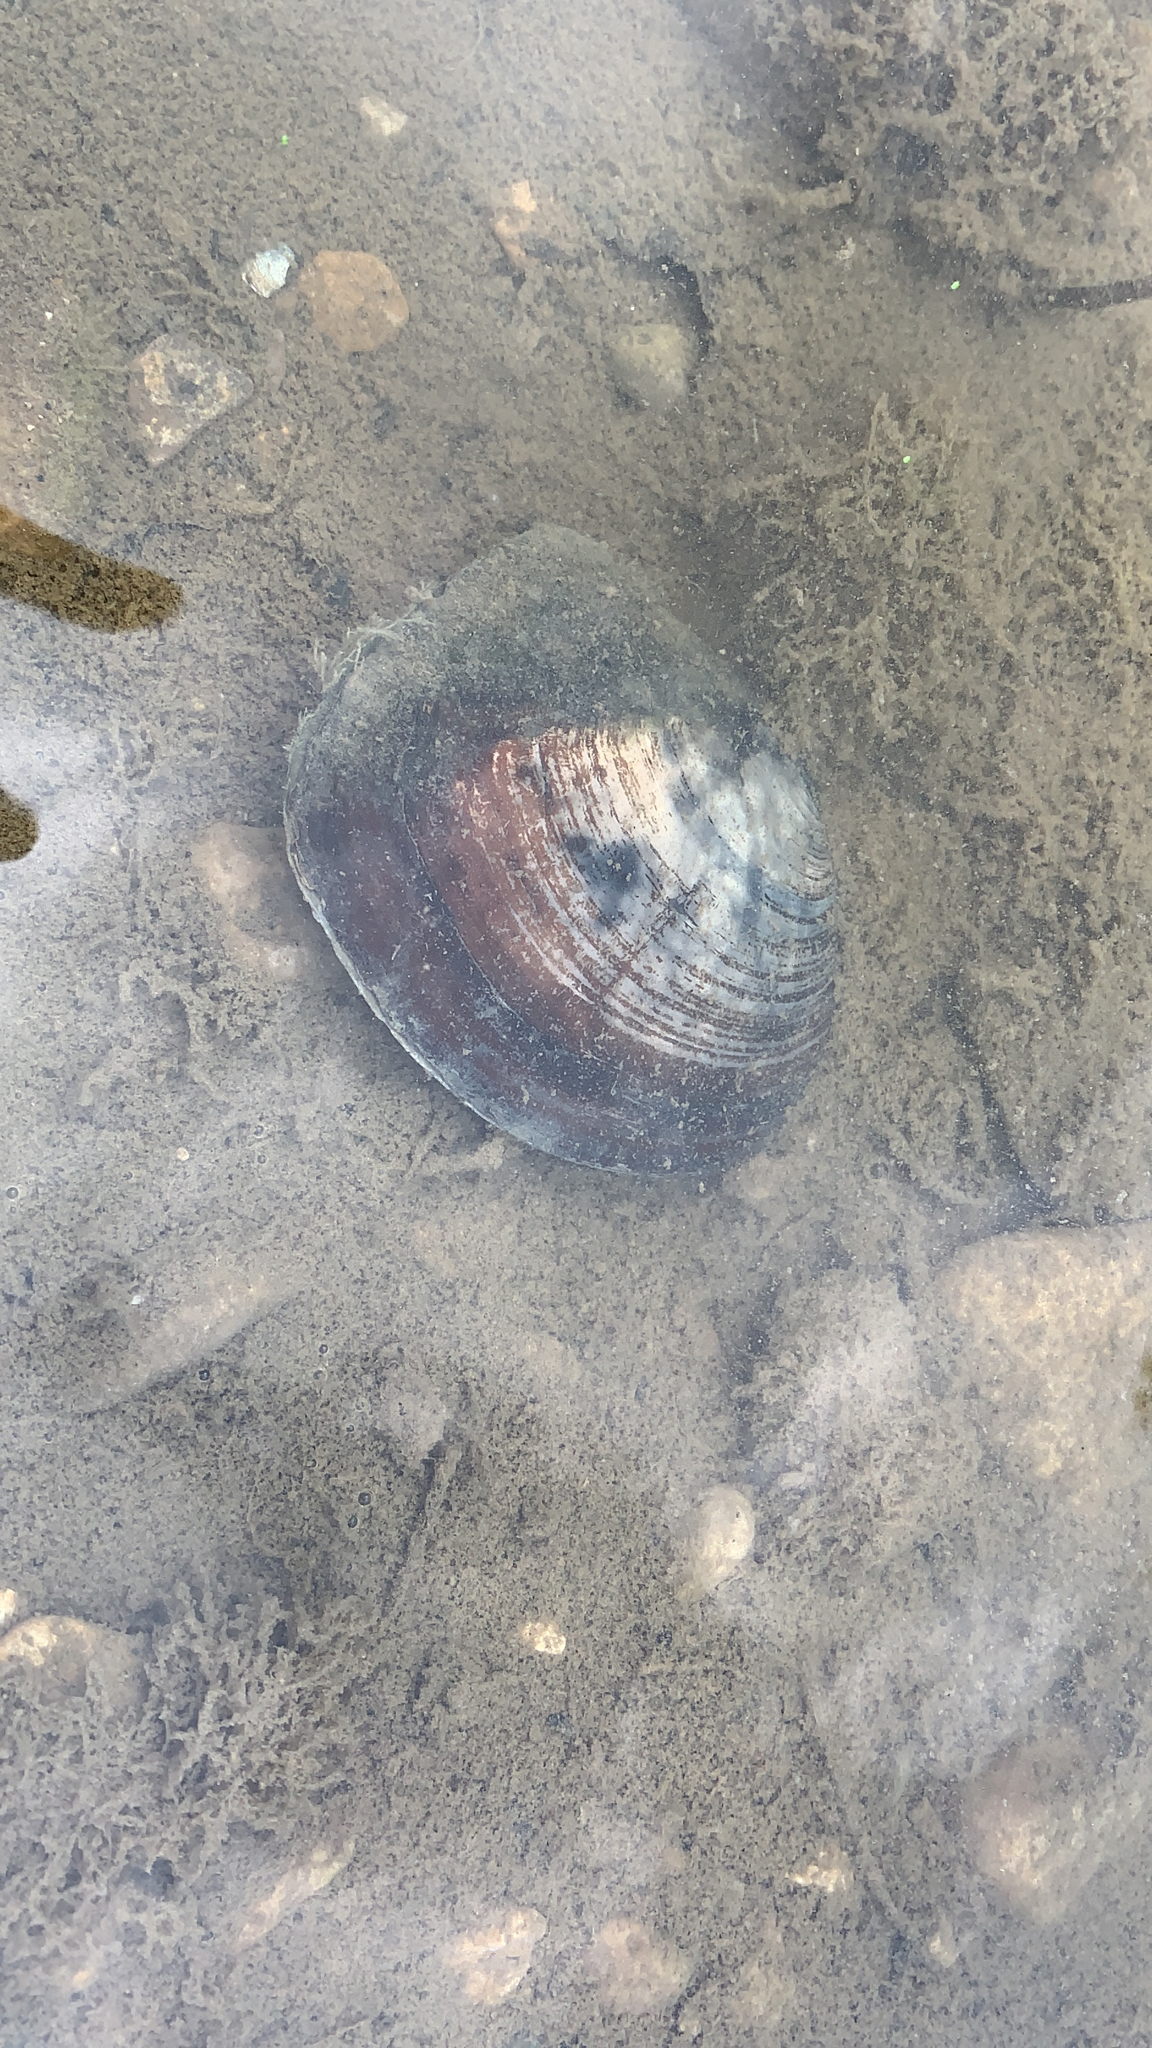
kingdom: Animalia
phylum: Mollusca
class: Bivalvia
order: Unionida
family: Unionidae
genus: Lasmigona
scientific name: Lasmigona complanata
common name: White heelsplitter
